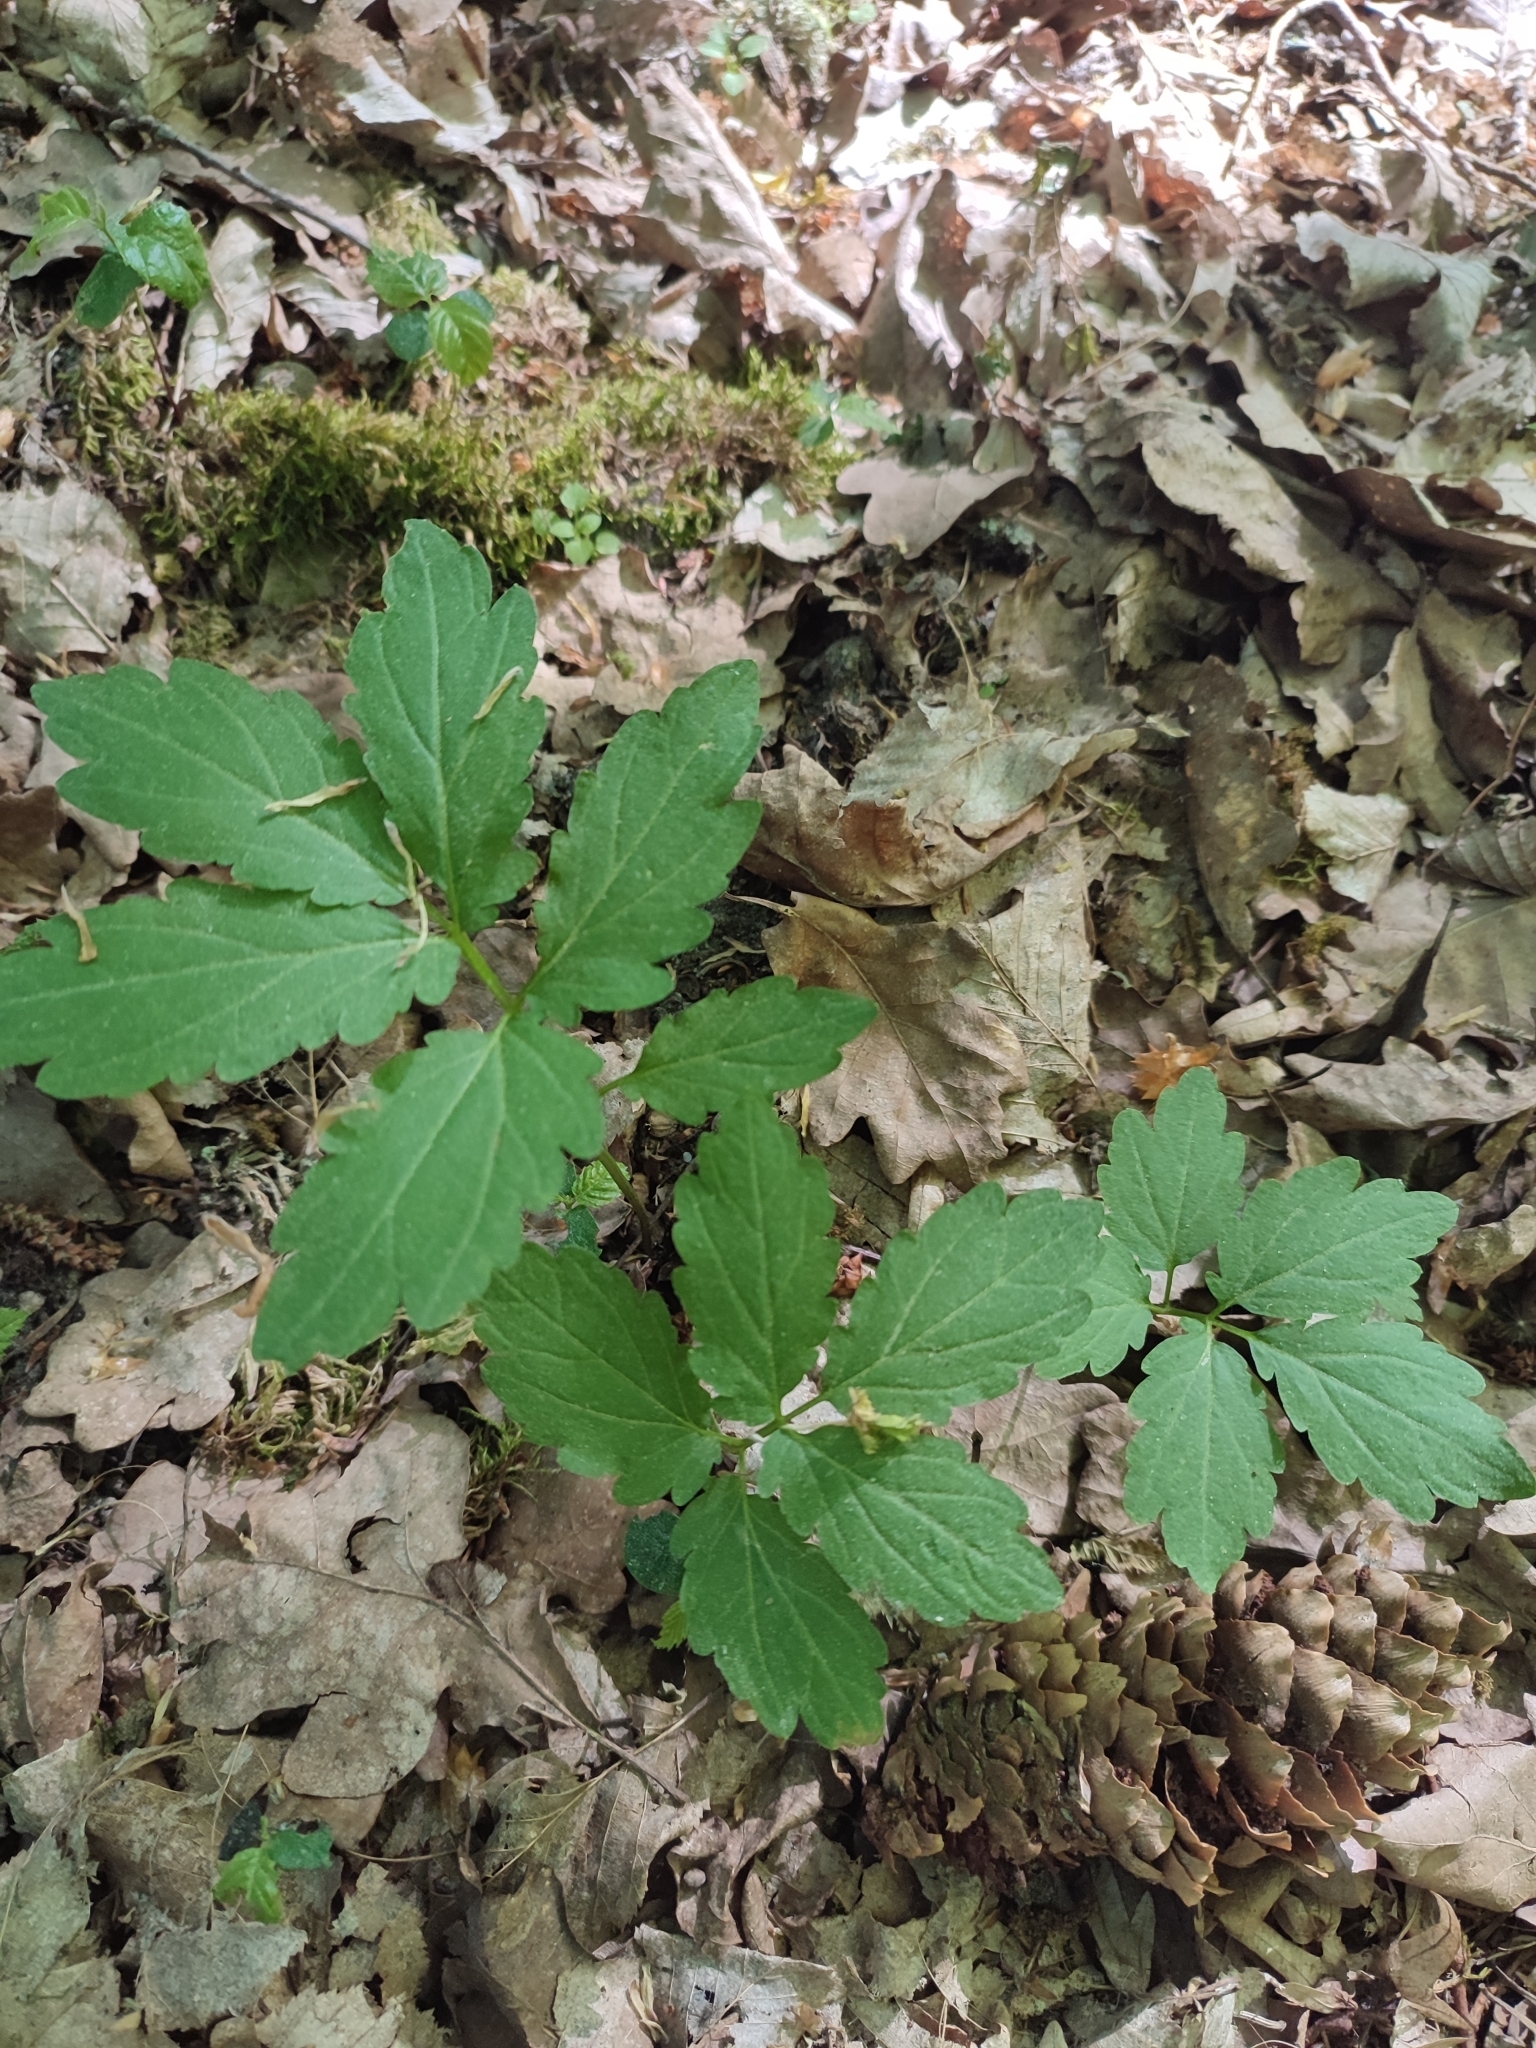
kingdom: Plantae
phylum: Tracheophyta
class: Magnoliopsida
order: Brassicales
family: Brassicaceae
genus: Cardamine
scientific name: Cardamine bulbifera
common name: Coralroot bittercress
